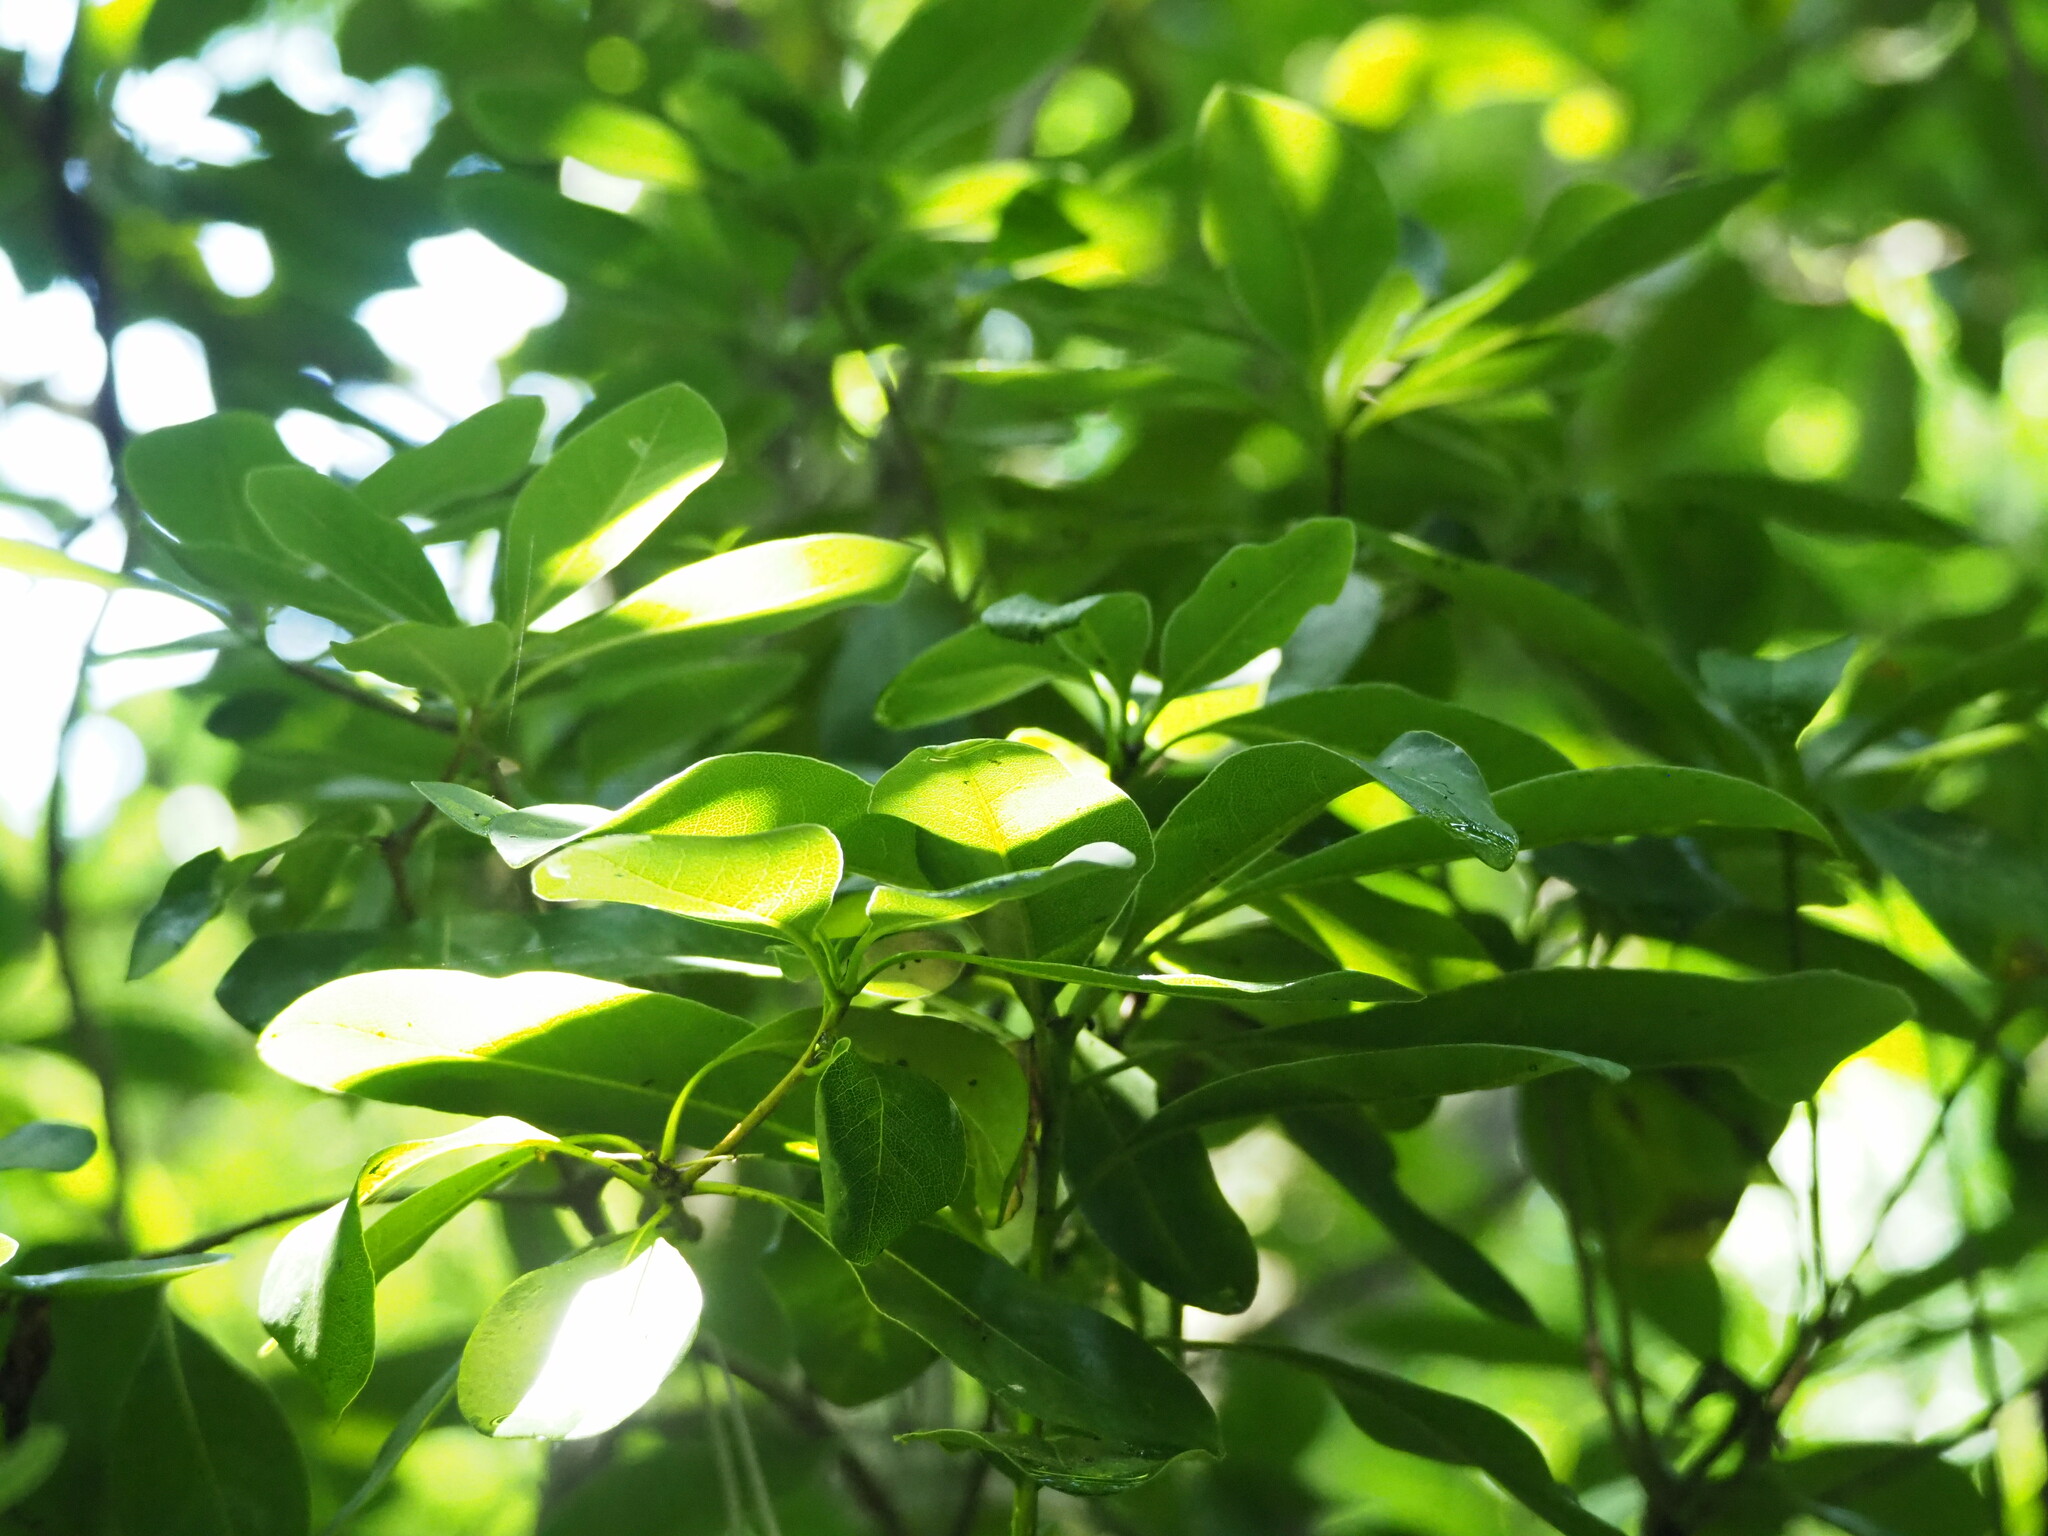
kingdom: Plantae
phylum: Tracheophyta
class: Magnoliopsida
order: Apiales
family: Pittosporaceae
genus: Pittosporum
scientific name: Pittosporum tobira
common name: Japanese cheesewood
